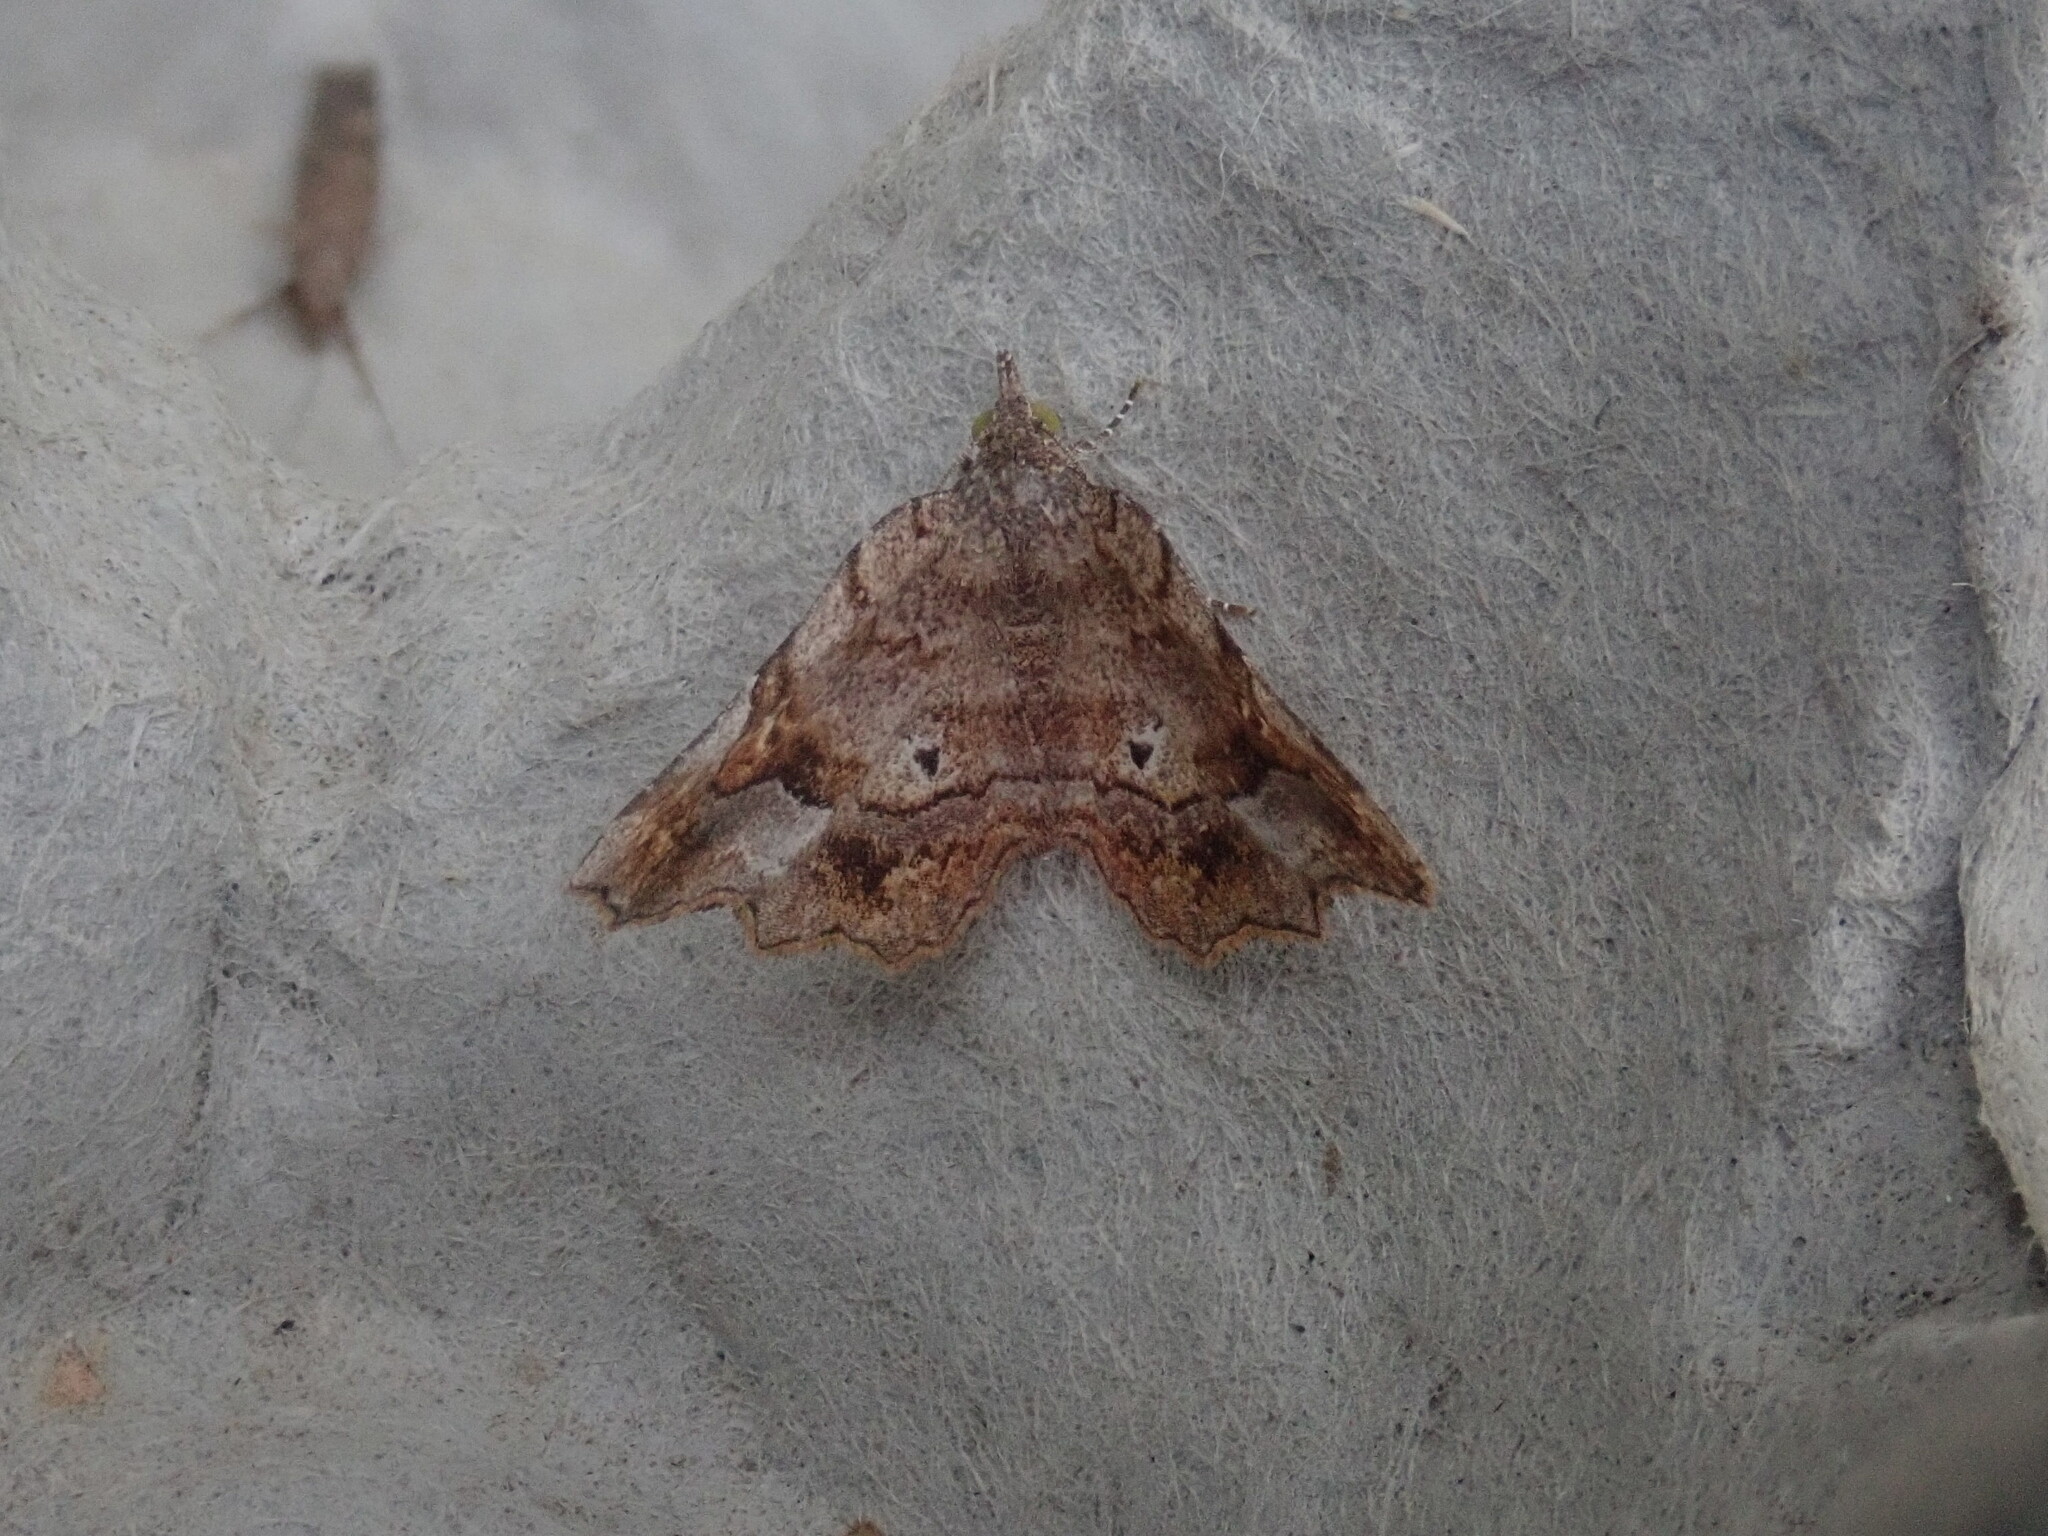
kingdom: Animalia
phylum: Arthropoda
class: Insecta
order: Lepidoptera
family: Erebidae
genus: Pangrapta
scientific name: Pangrapta decoralis
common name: Decorated owlet
